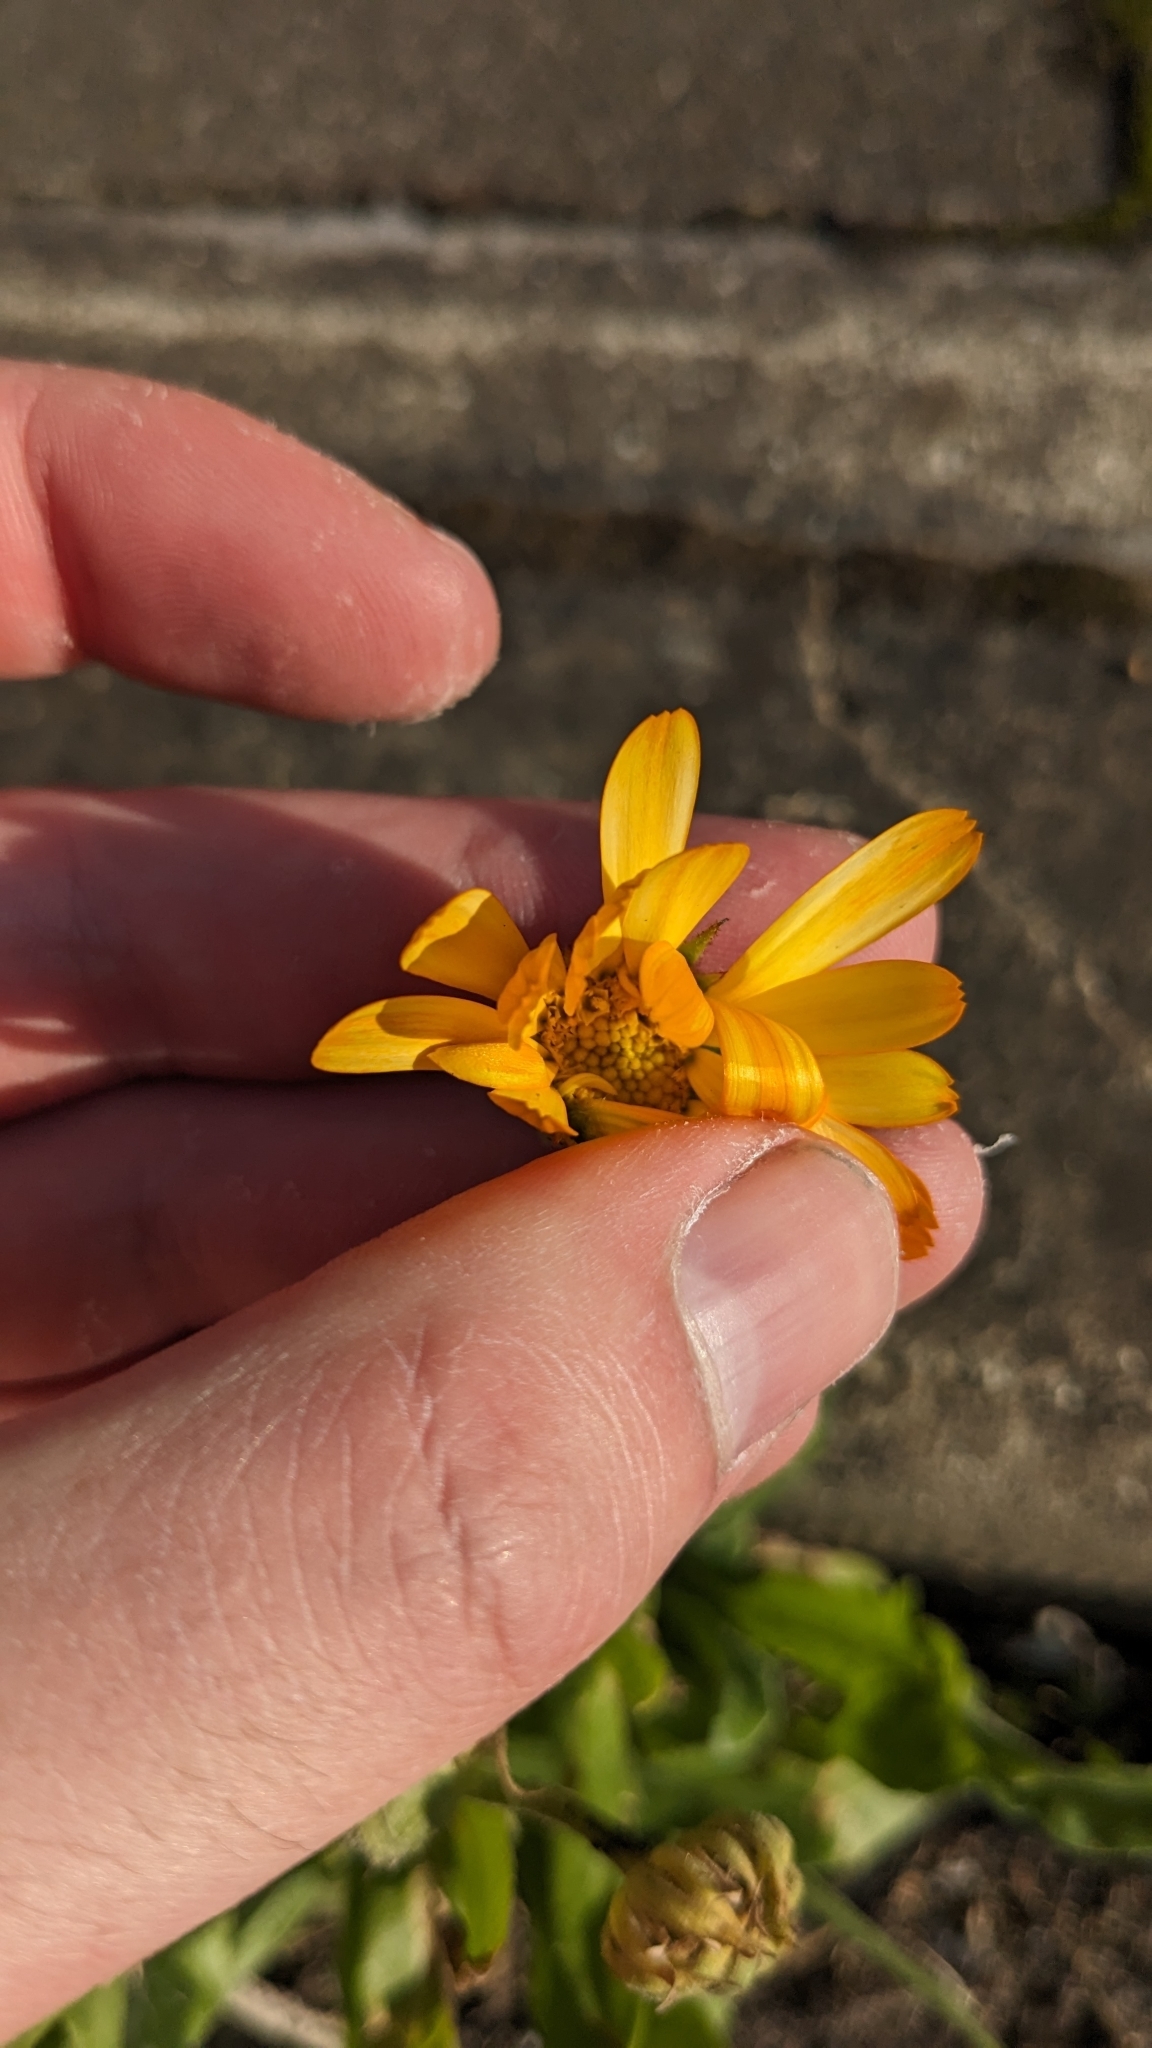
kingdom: Plantae
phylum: Tracheophyta
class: Magnoliopsida
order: Asterales
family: Asteraceae
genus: Calendula
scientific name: Calendula officinalis
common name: Pot marigold
